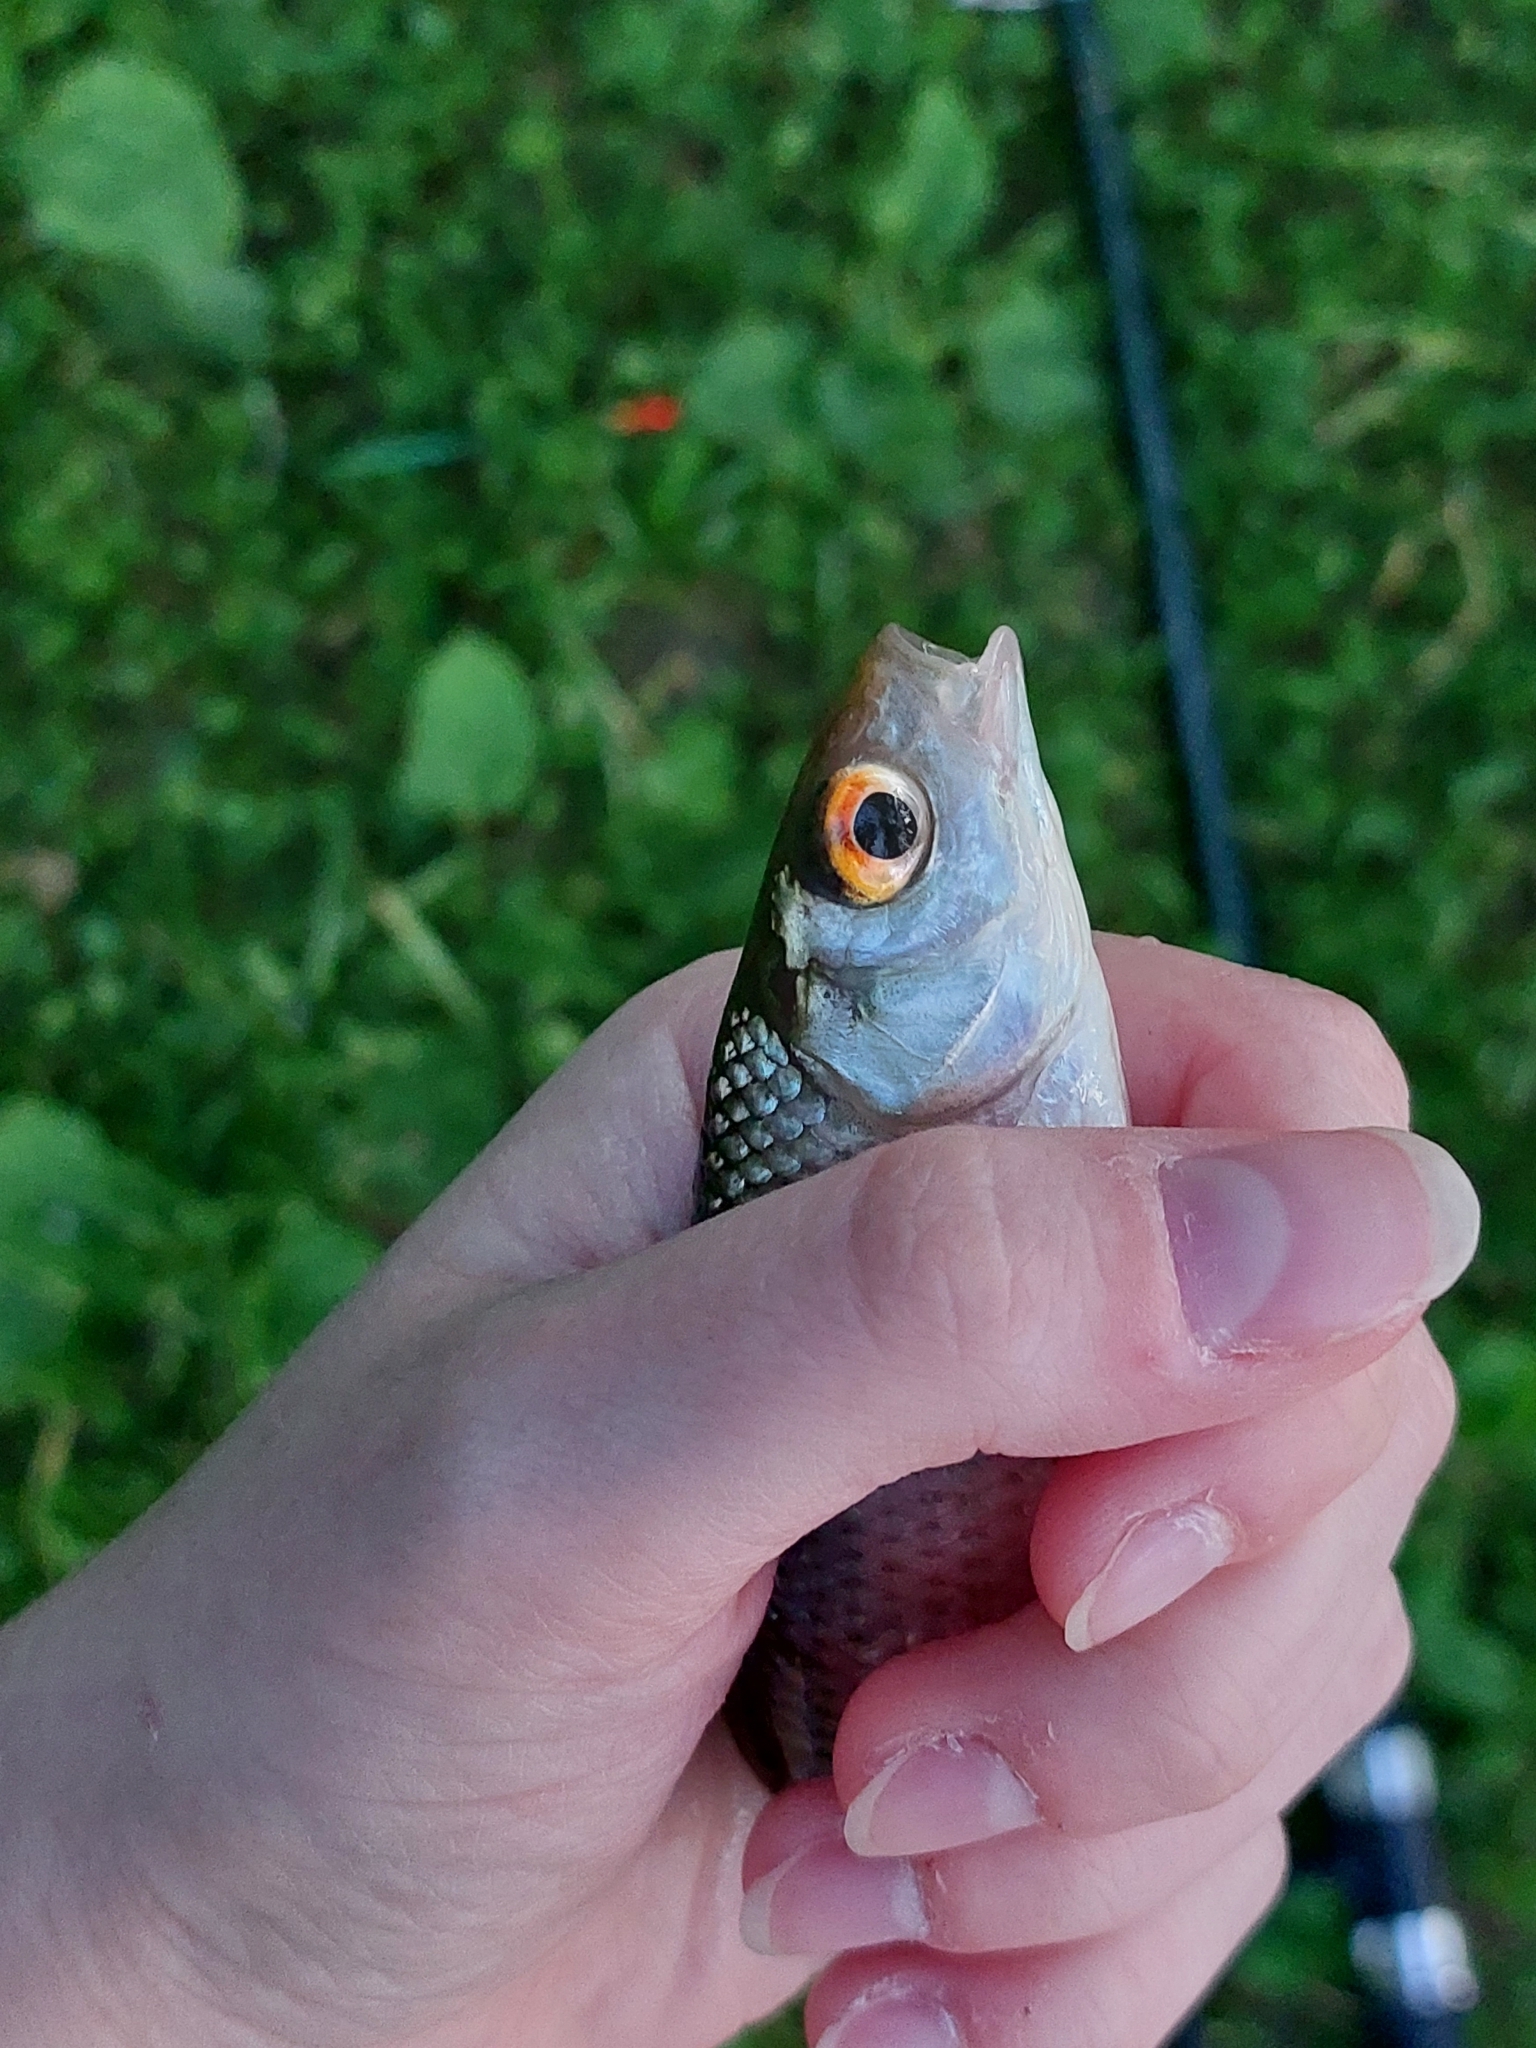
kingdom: Animalia
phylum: Chordata
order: Cypriniformes
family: Cyprinidae
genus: Rutilus
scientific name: Rutilus rutilus
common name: Roach
